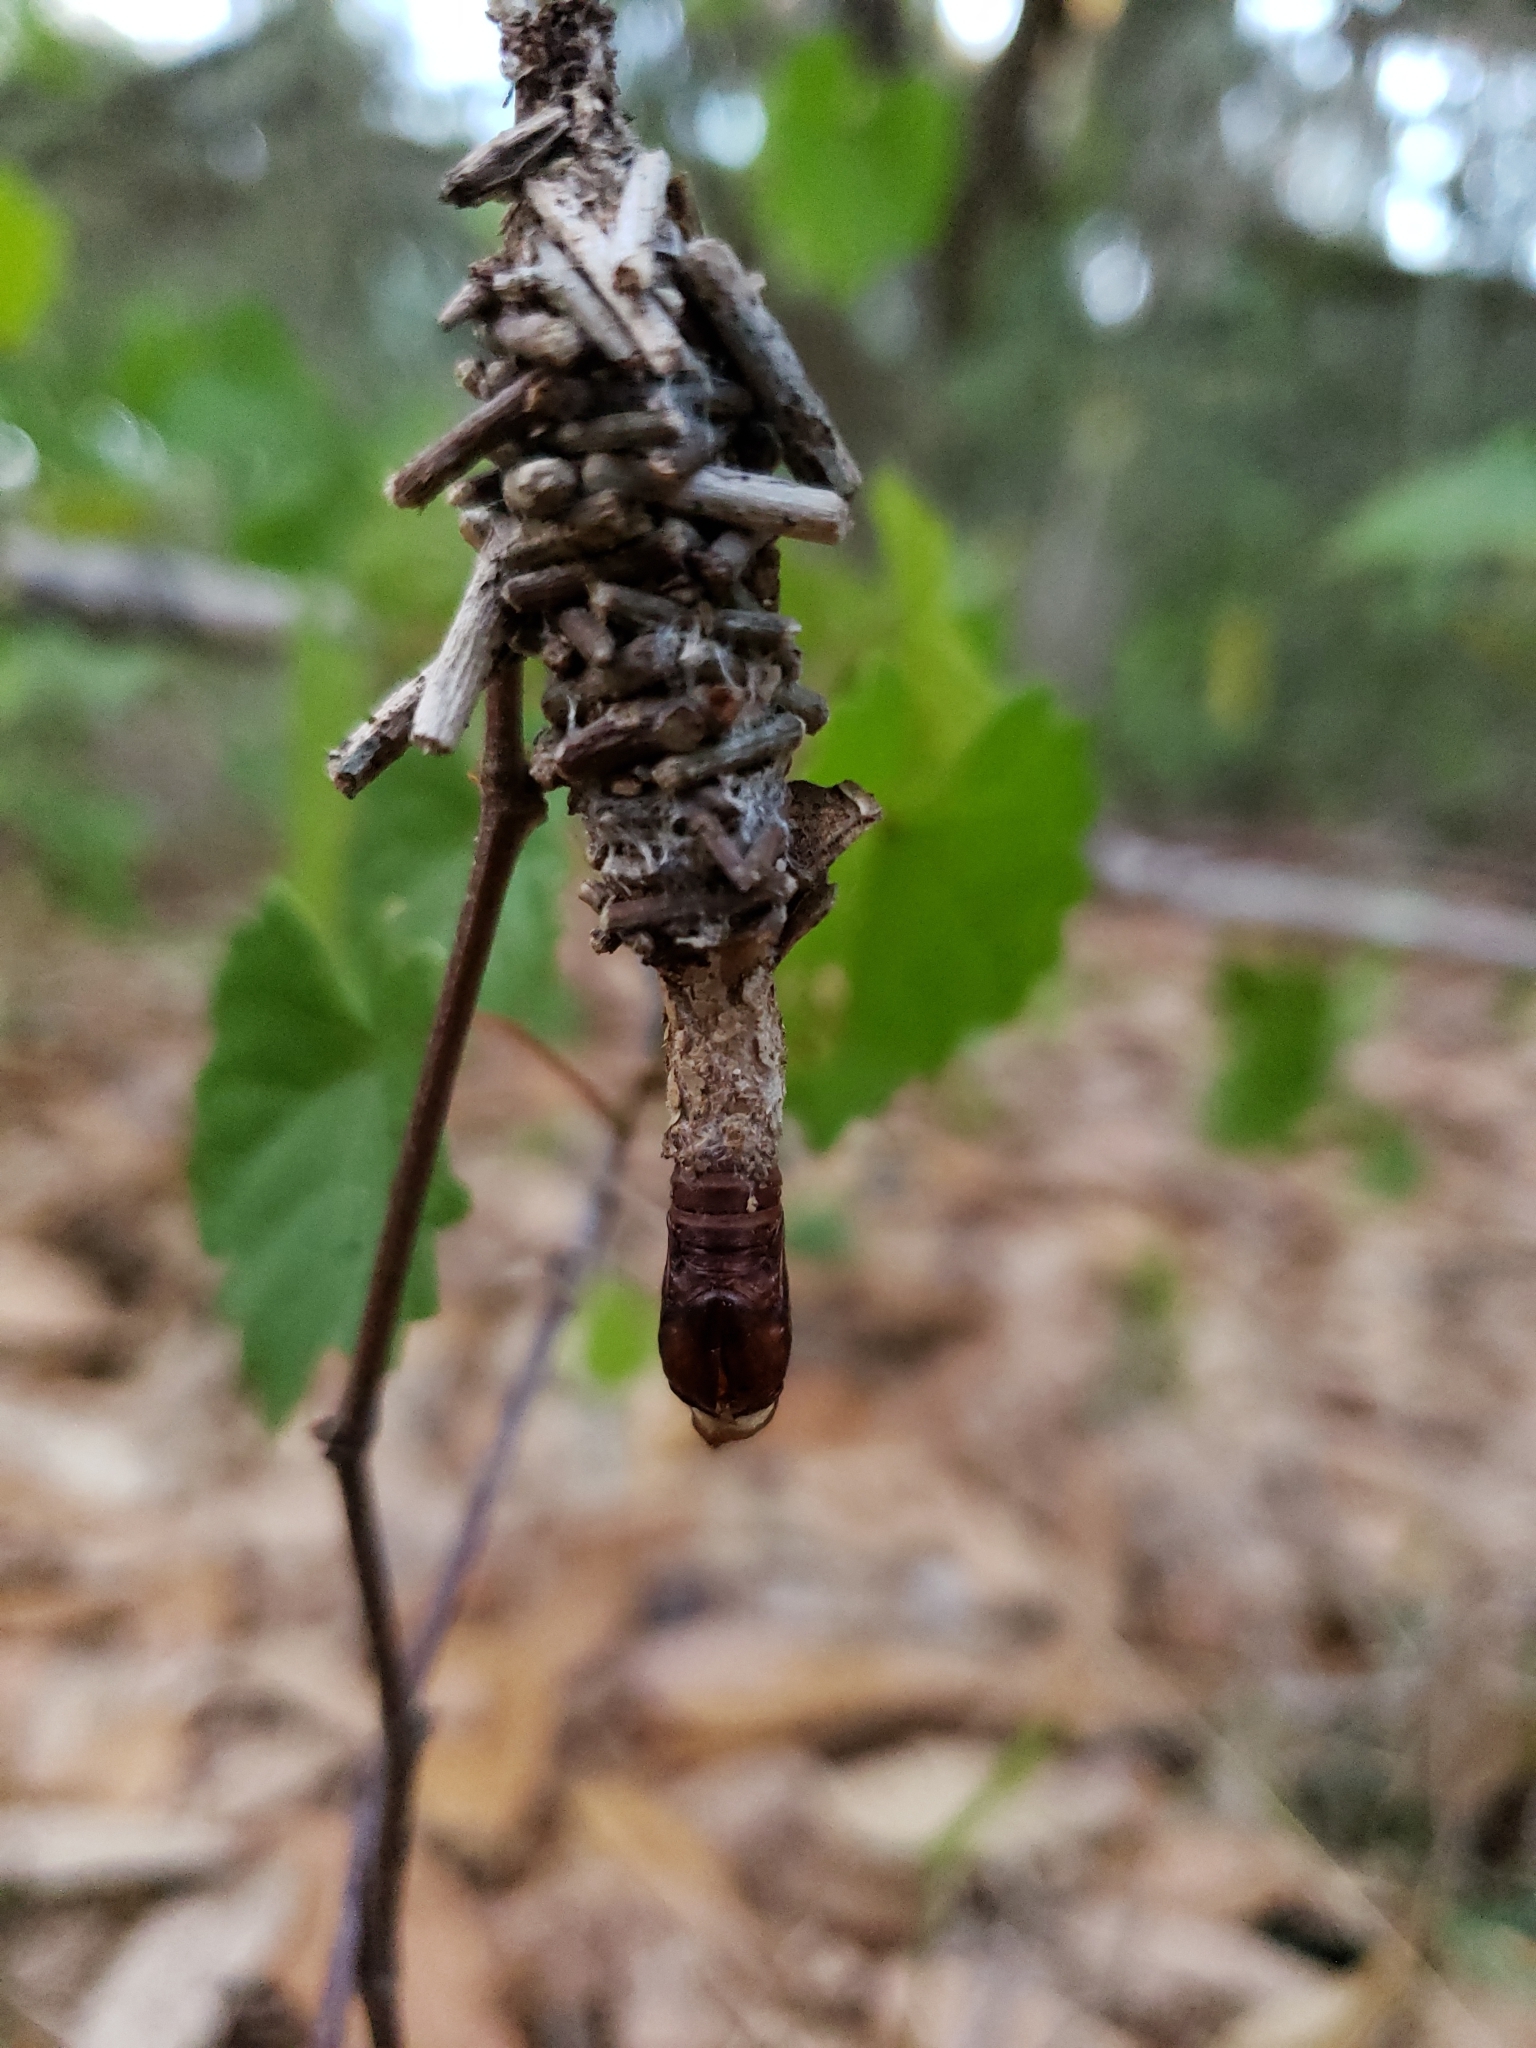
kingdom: Animalia
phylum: Arthropoda
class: Insecta
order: Lepidoptera
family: Psychidae
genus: Oiketicus
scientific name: Oiketicus
